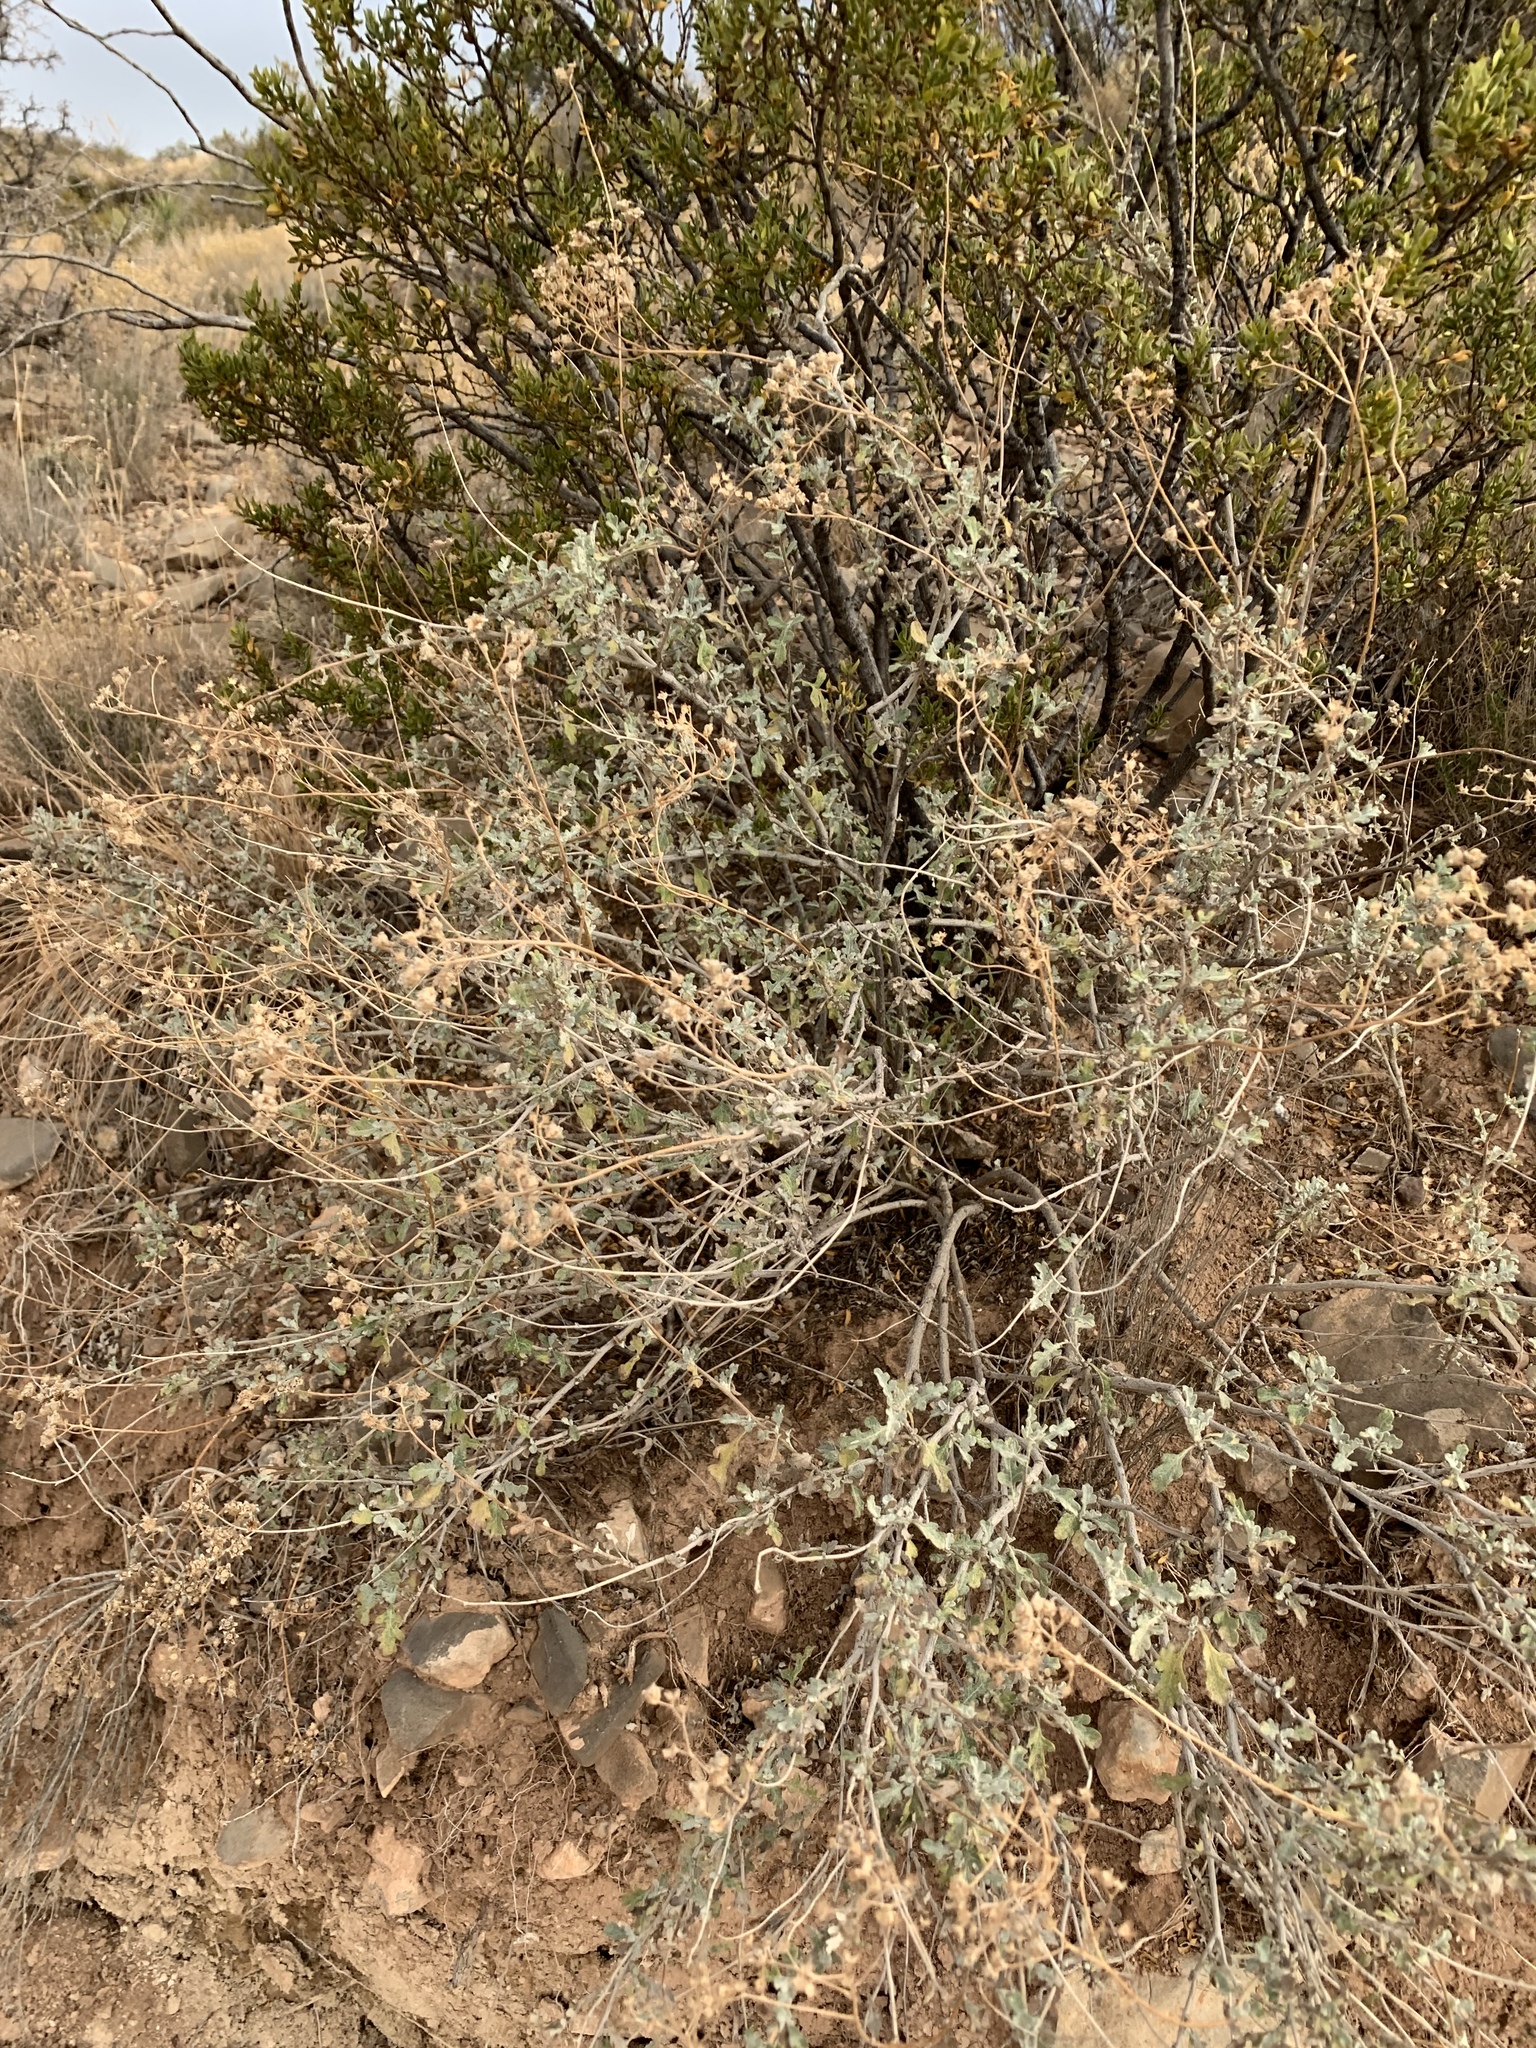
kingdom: Plantae
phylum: Tracheophyta
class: Magnoliopsida
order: Asterales
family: Asteraceae
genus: Parthenium
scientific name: Parthenium incanum
